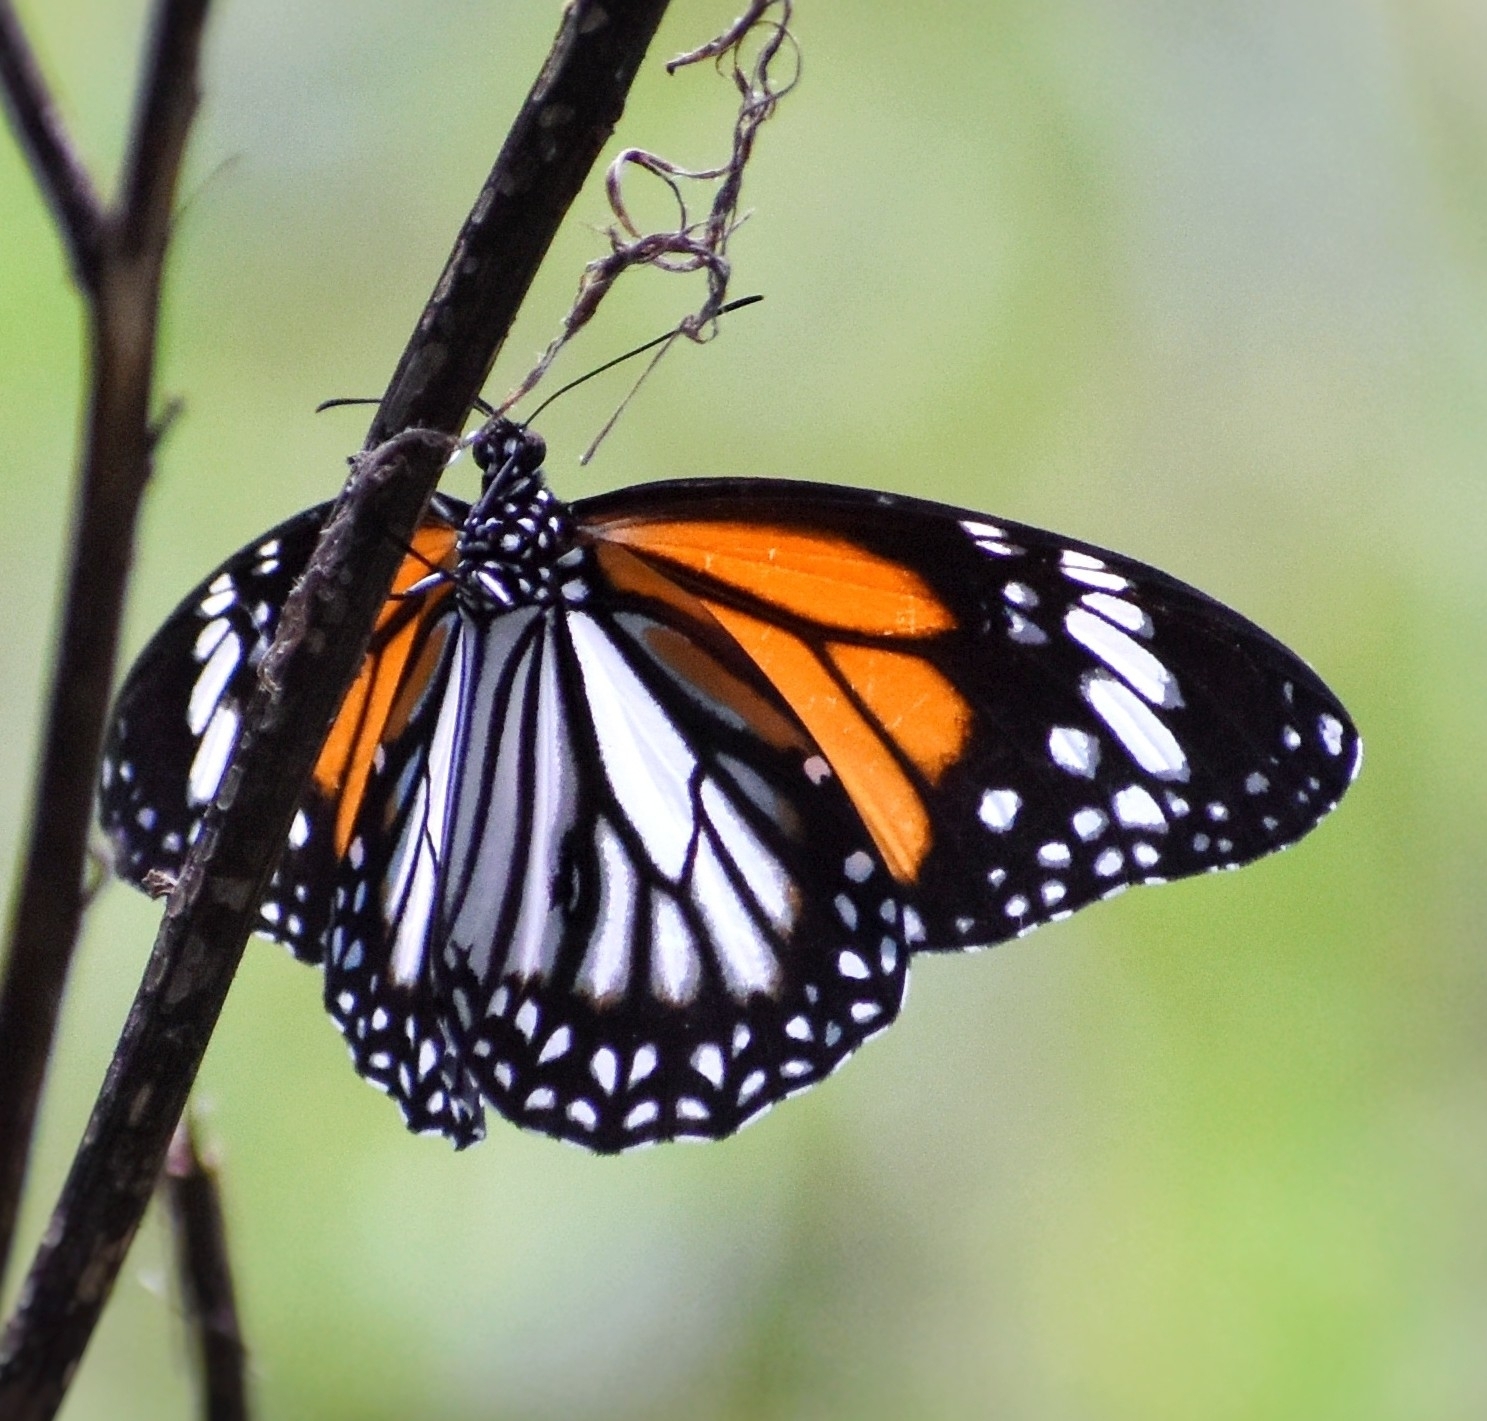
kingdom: Animalia
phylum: Arthropoda
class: Insecta
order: Lepidoptera
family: Nymphalidae
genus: Danaus
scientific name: Danaus melanippus
